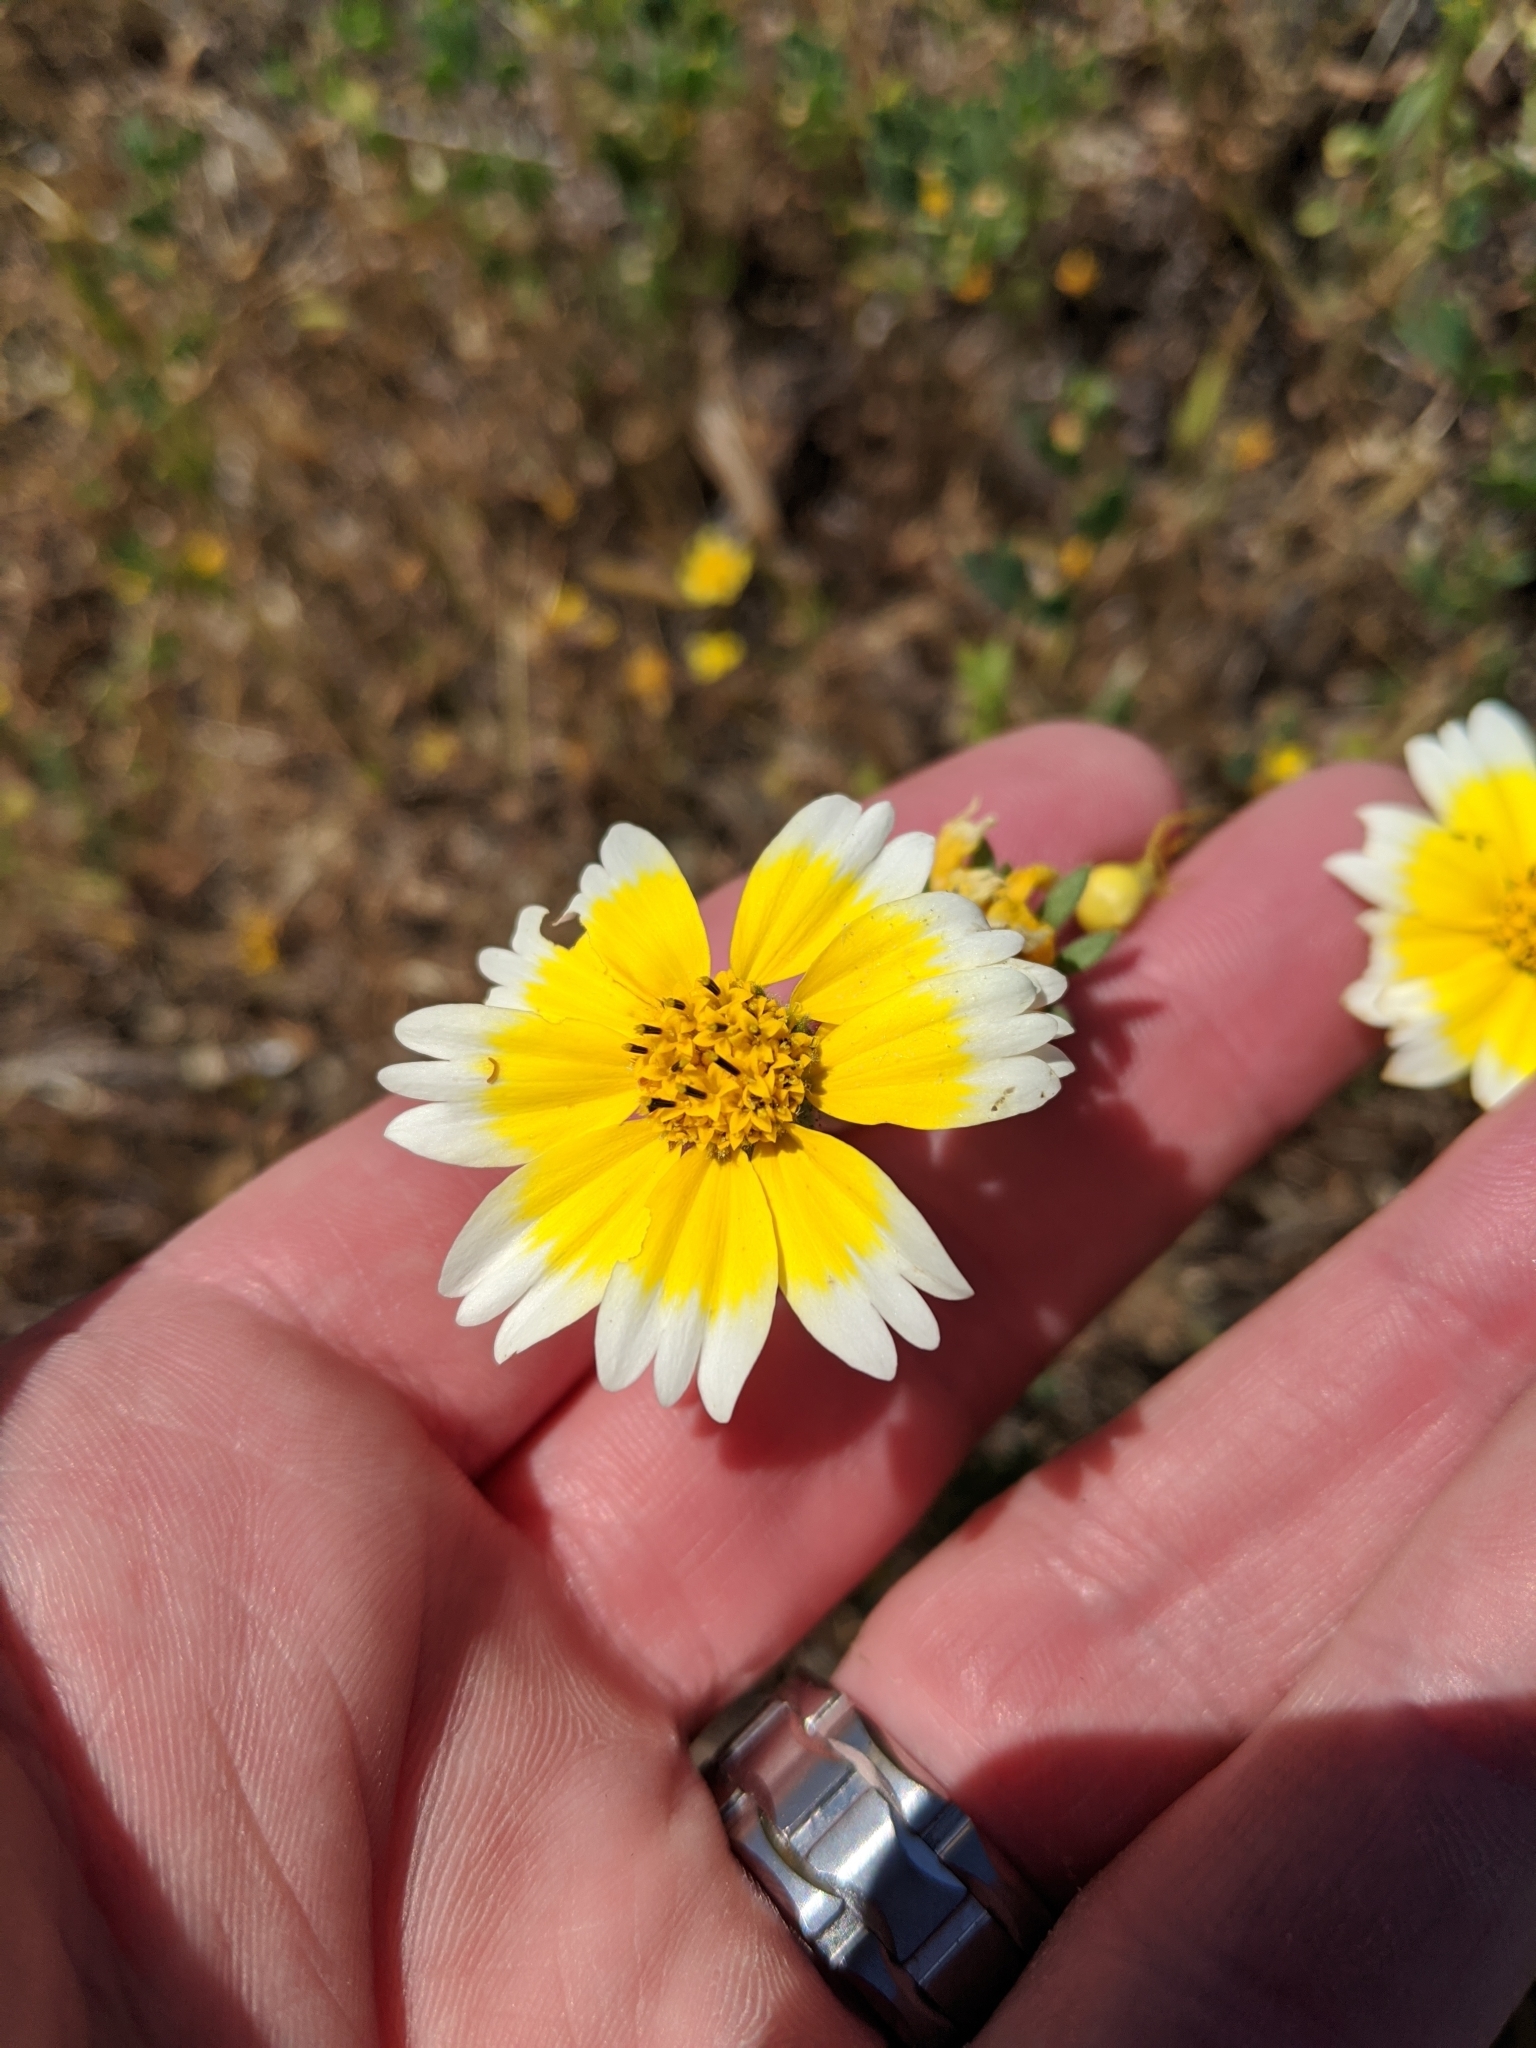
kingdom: Plantae
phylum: Tracheophyta
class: Magnoliopsida
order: Asterales
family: Asteraceae
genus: Layia
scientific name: Layia platyglossa
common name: Tidy-tips
